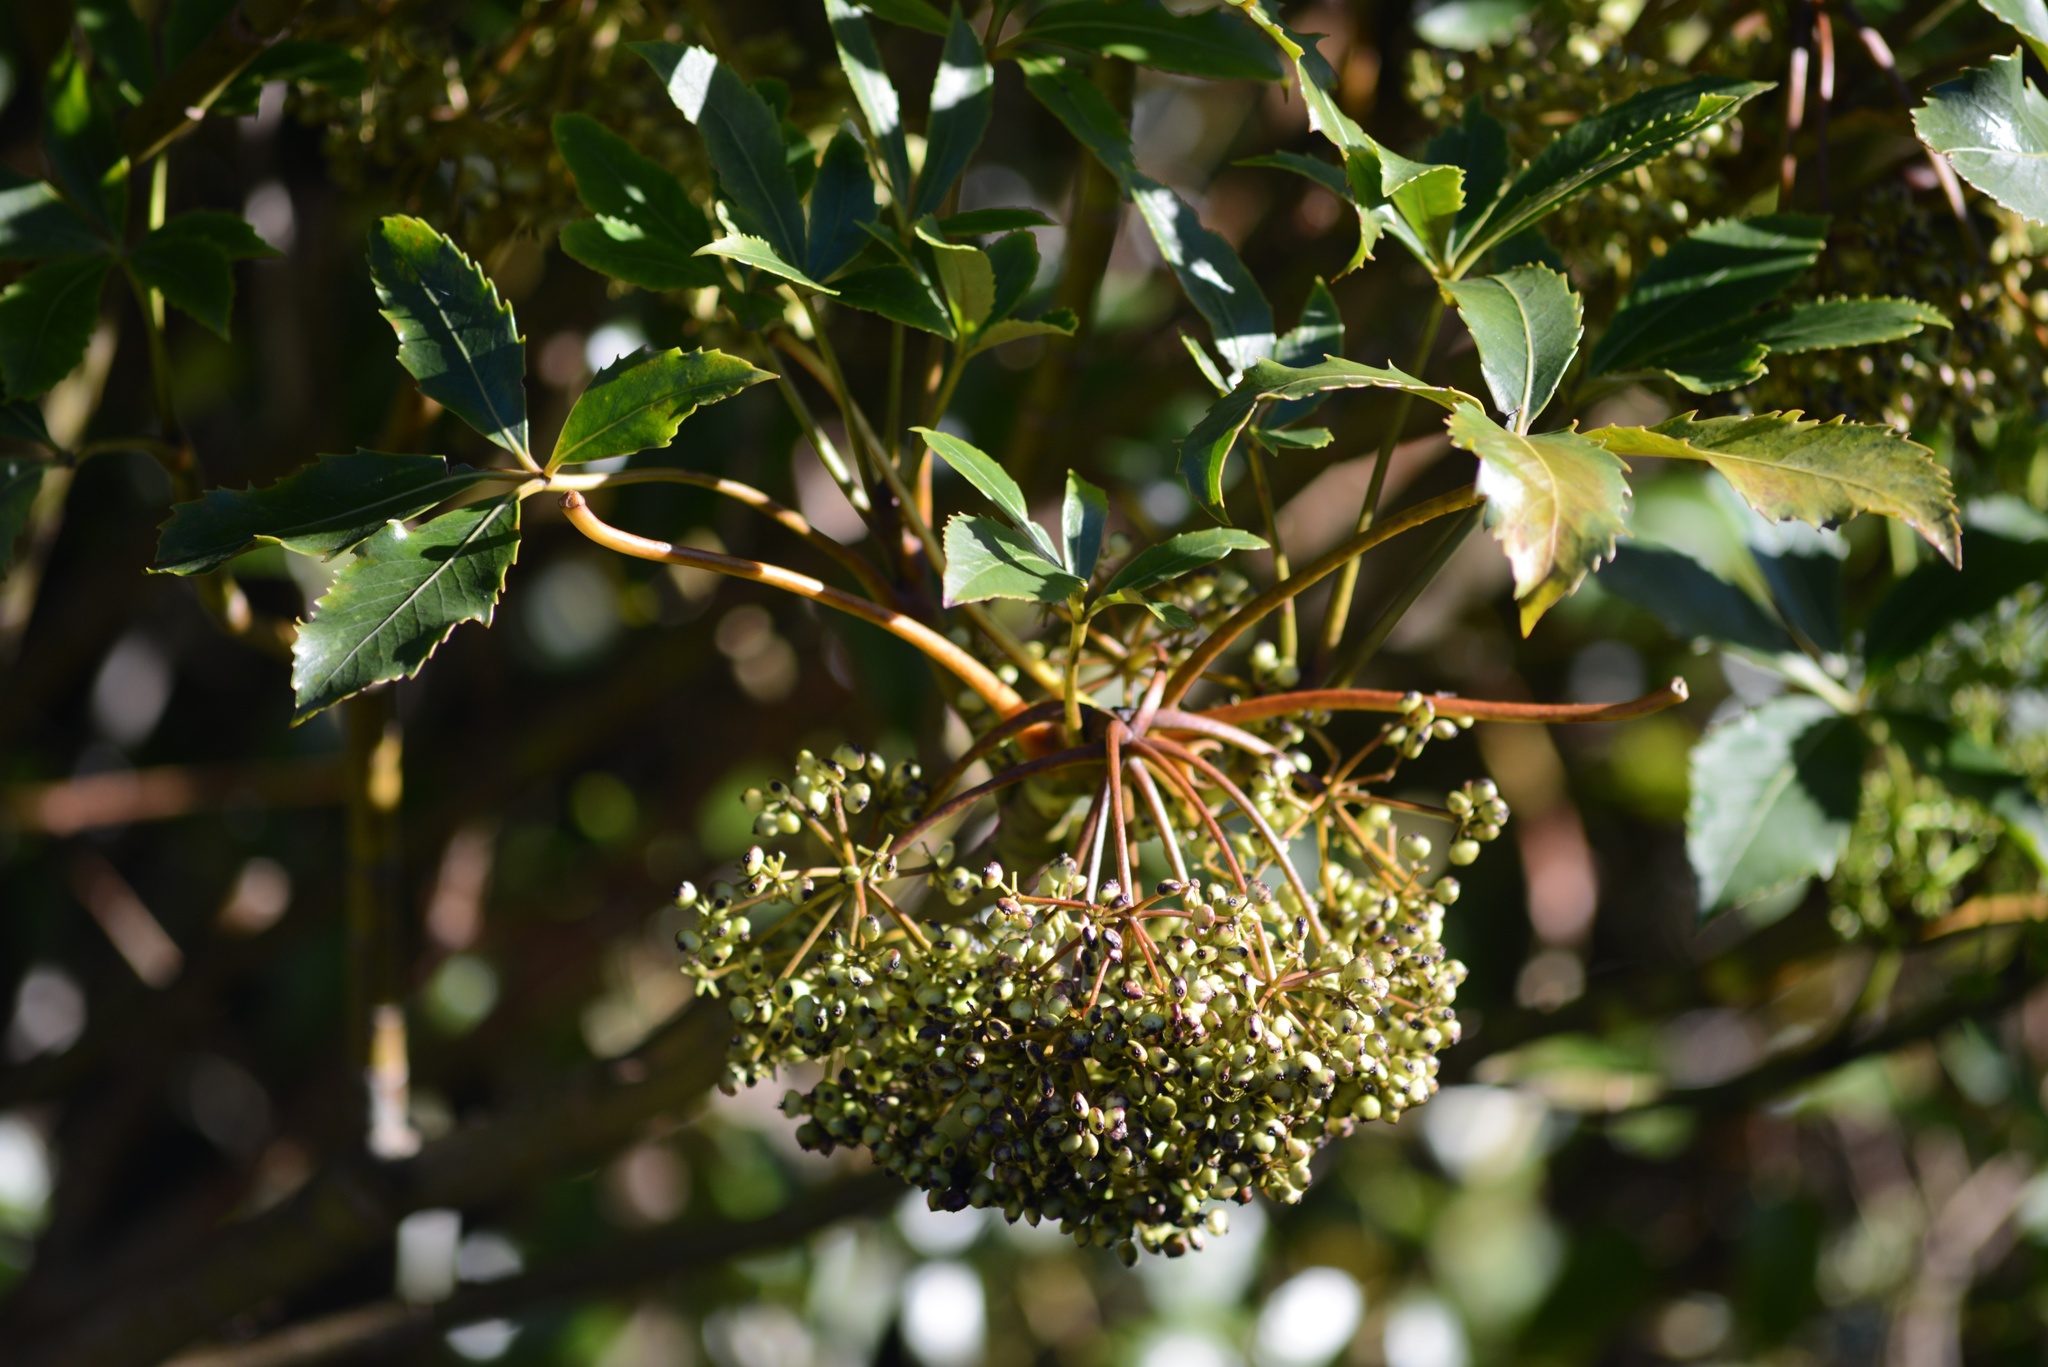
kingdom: Plantae
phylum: Tracheophyta
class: Magnoliopsida
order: Apiales
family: Araliaceae
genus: Neopanax
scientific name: Neopanax colensoi
